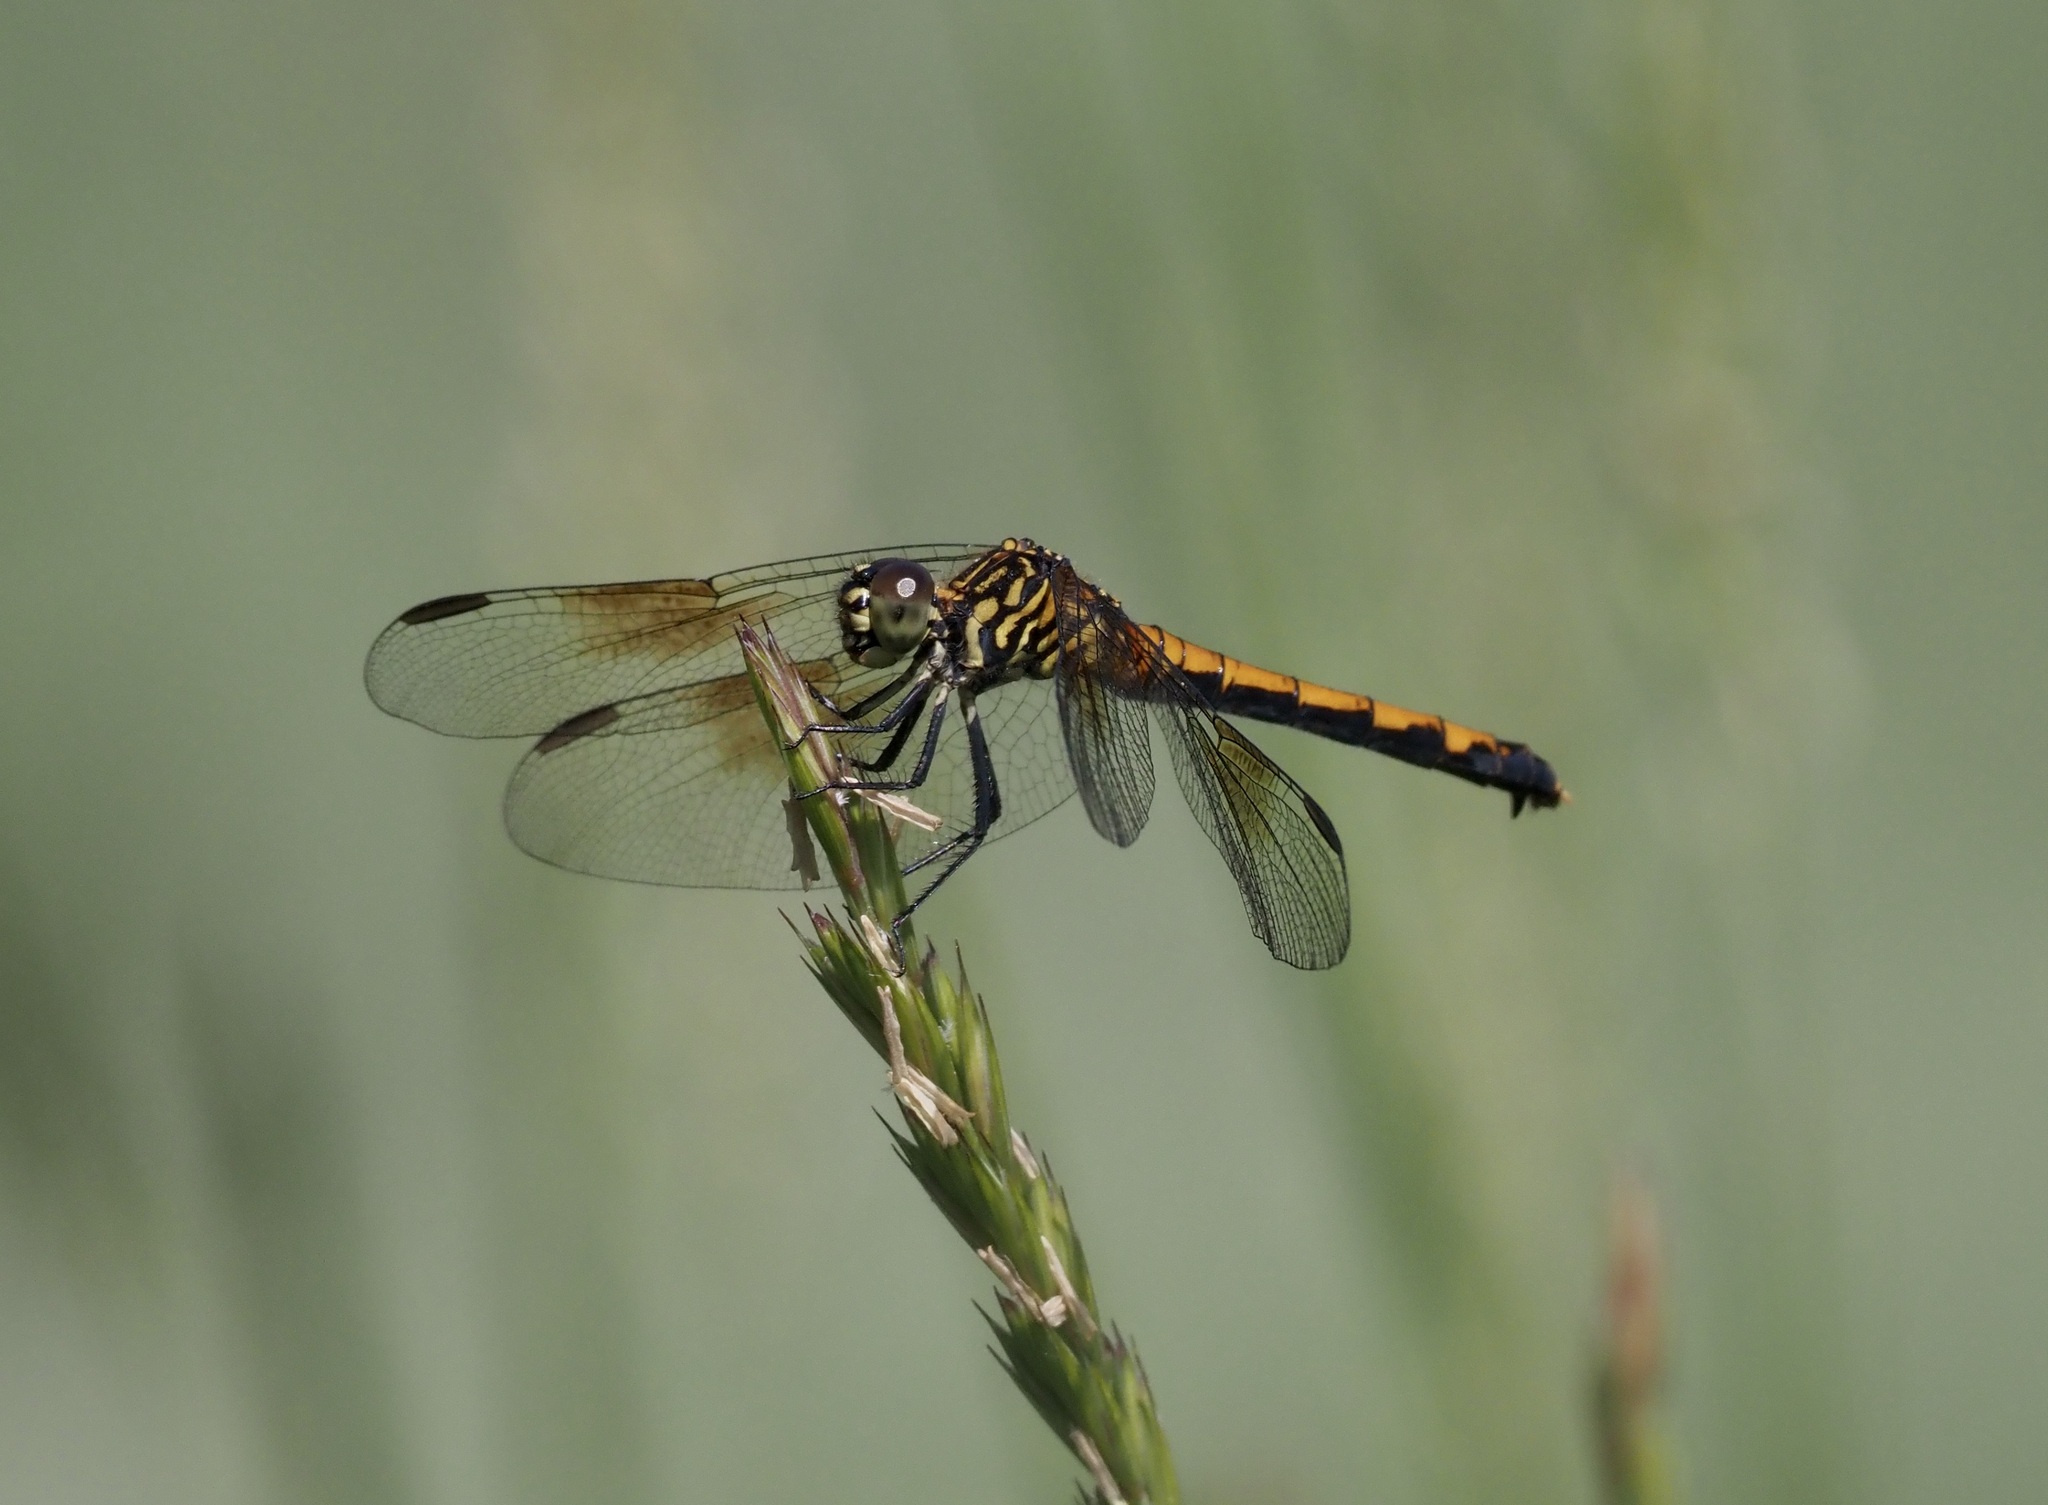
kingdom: Animalia
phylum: Arthropoda
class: Insecta
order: Odonata
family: Libellulidae
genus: Erythrodiplax
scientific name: Erythrodiplax berenice
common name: Seaside dragonlet
